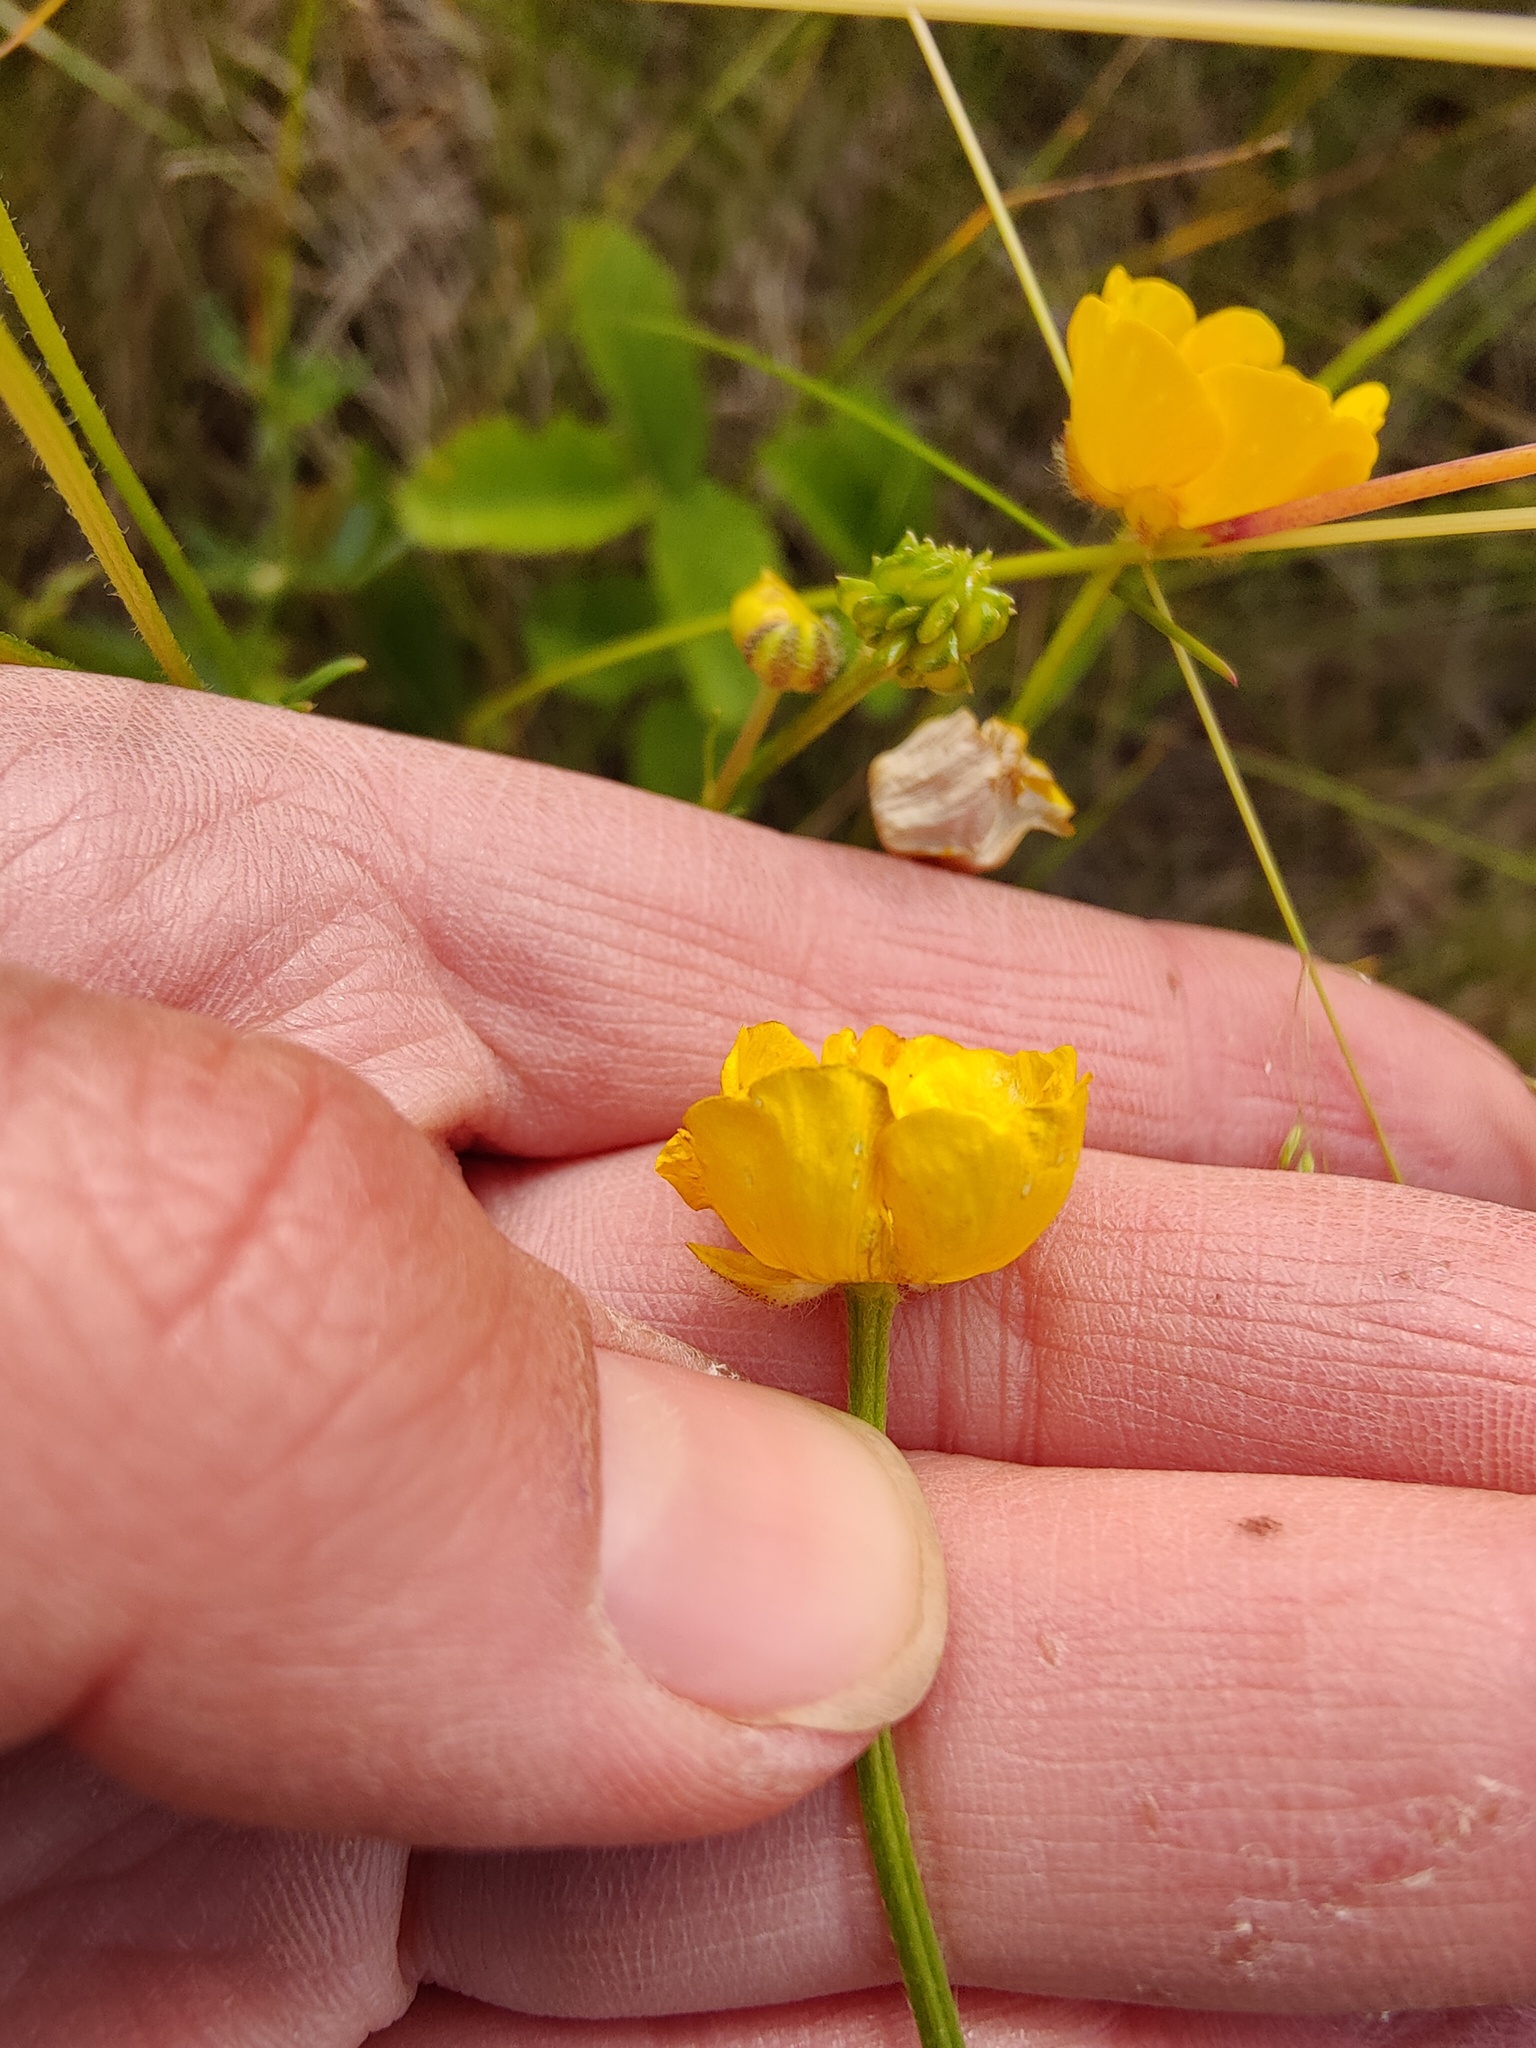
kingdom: Plantae
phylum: Tracheophyta
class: Magnoliopsida
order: Ranunculales
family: Ranunculaceae
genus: Ranunculus
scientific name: Ranunculus polyanthemos
